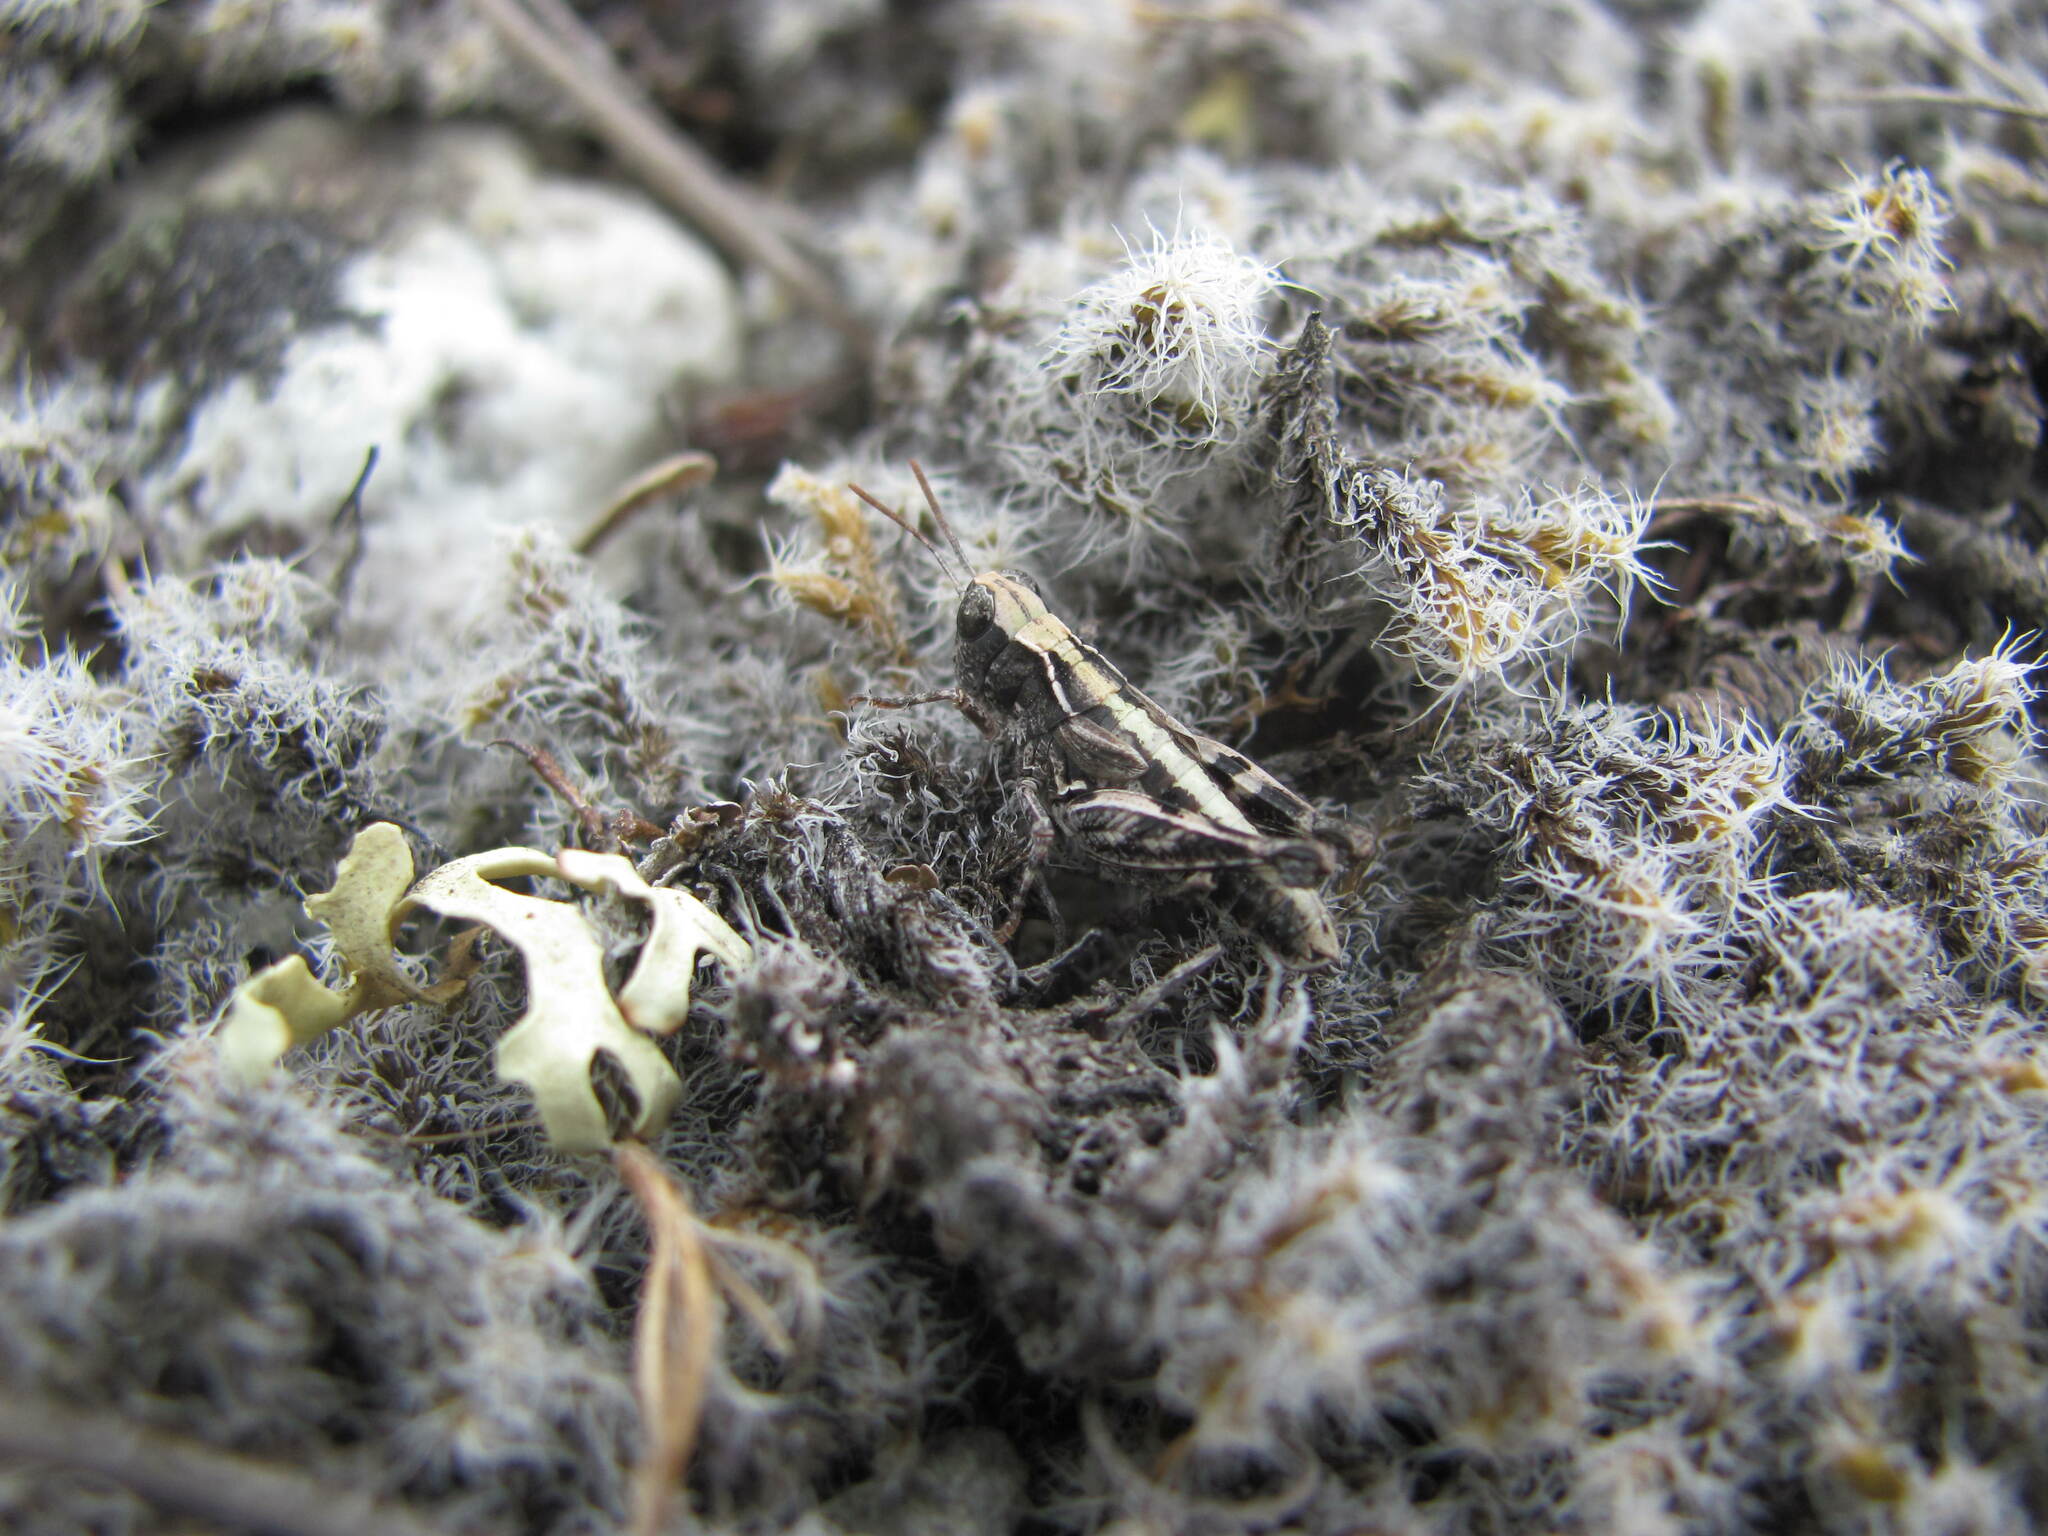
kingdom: Animalia
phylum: Arthropoda
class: Insecta
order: Orthoptera
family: Acrididae
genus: Phaulacridium
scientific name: Phaulacridium otagoense
